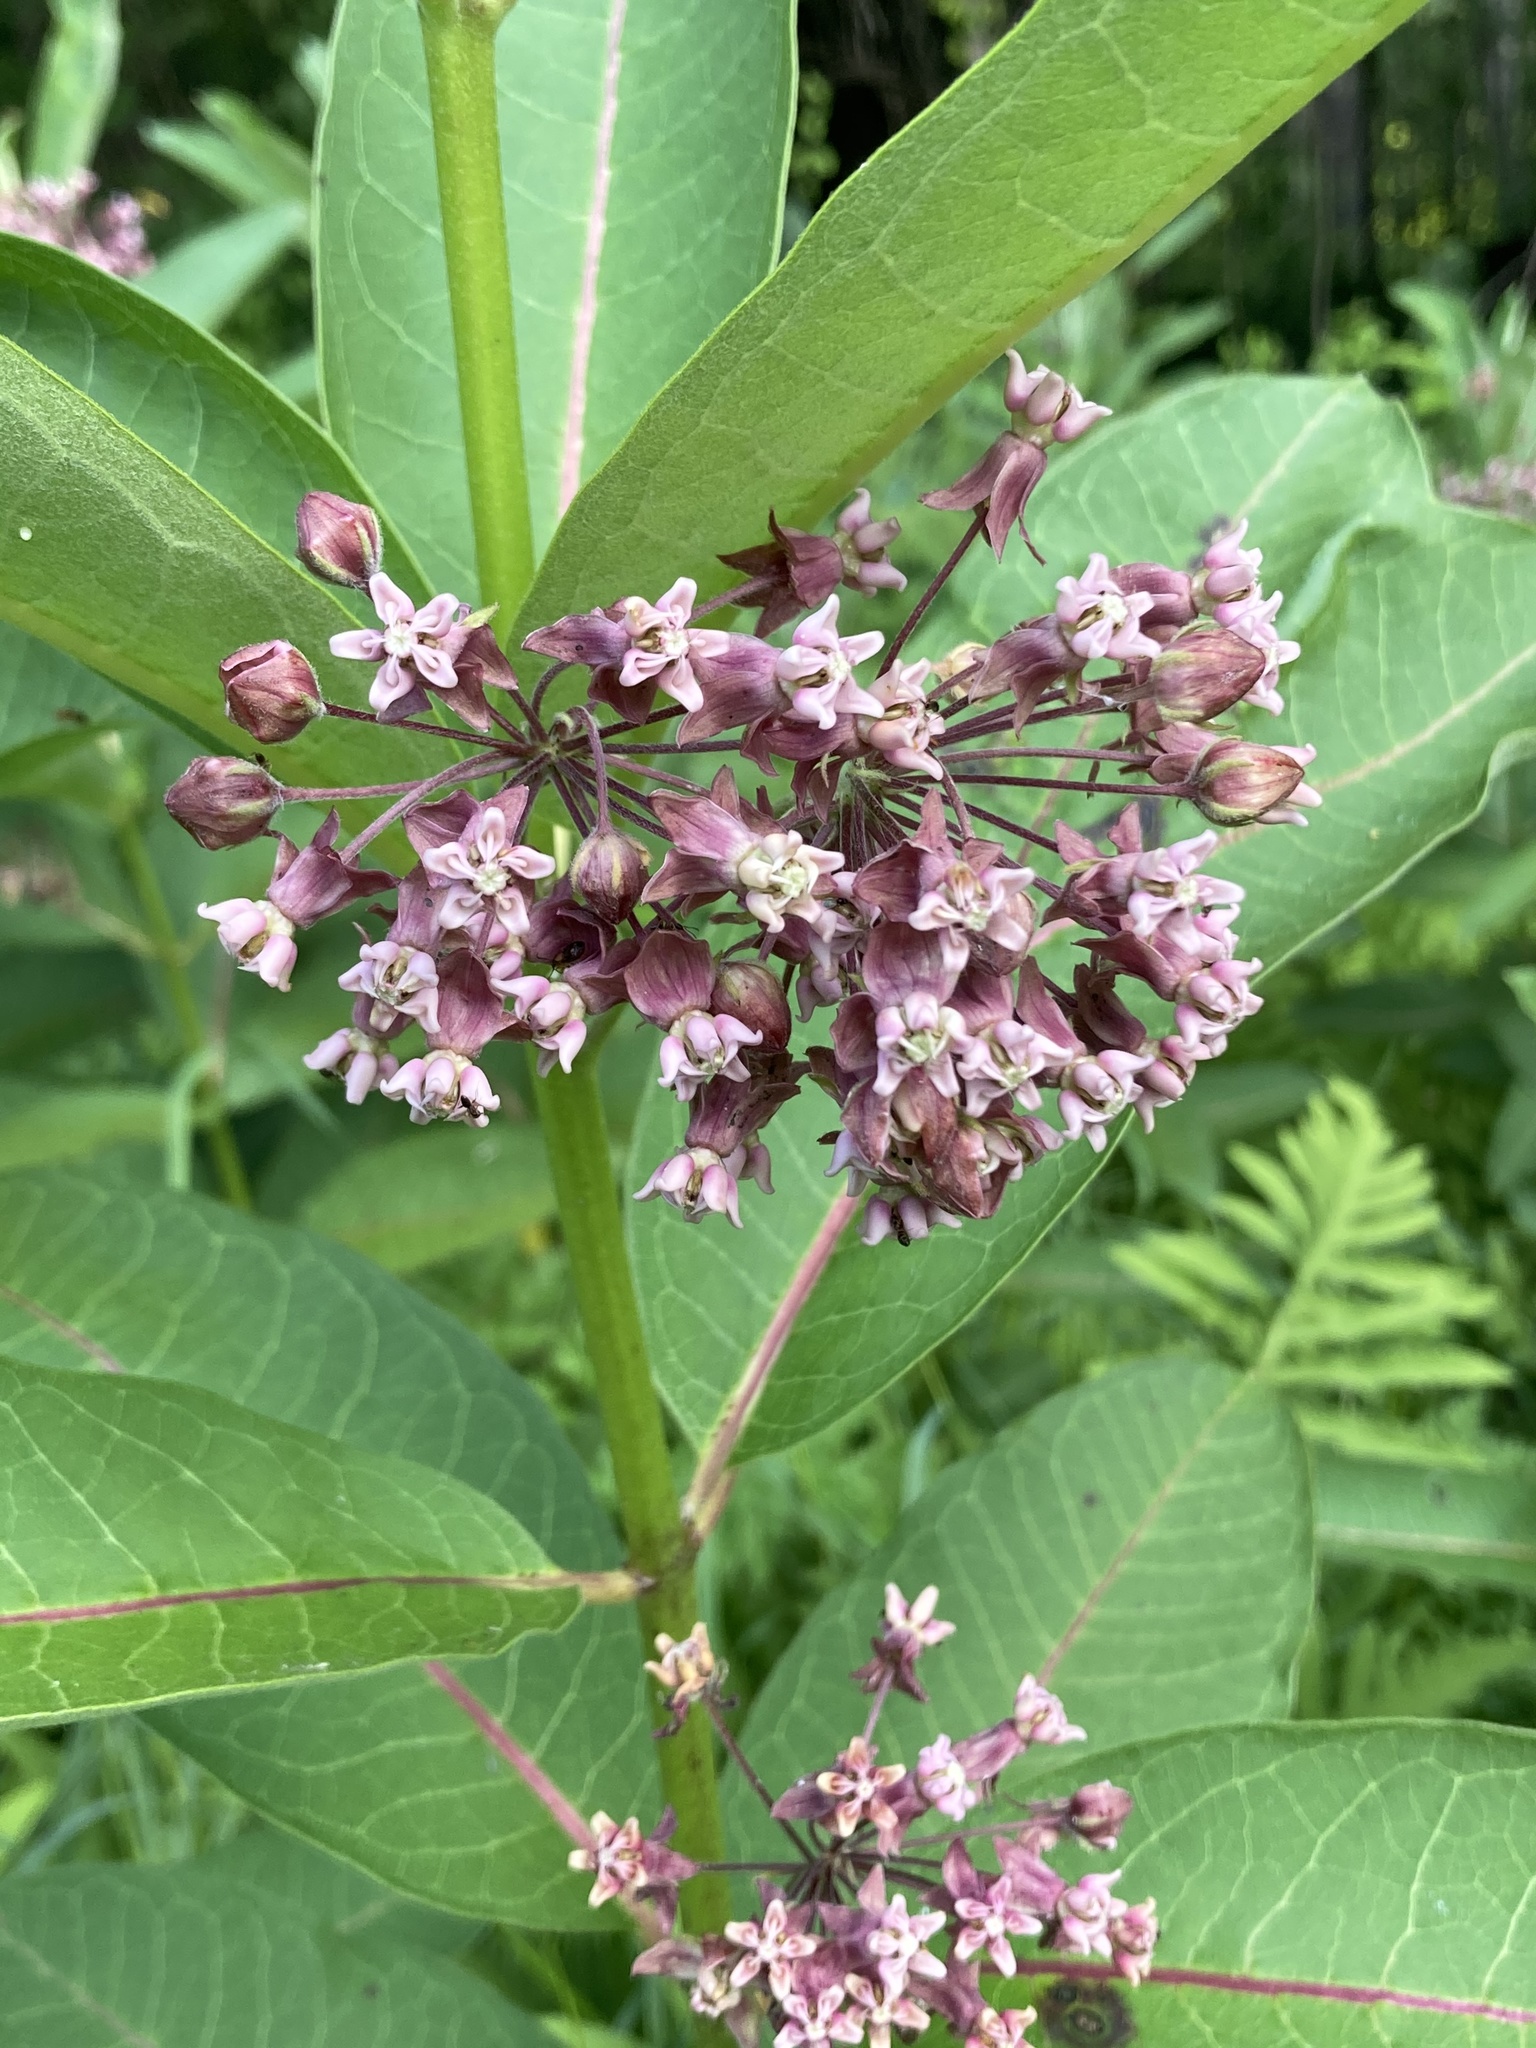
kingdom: Plantae
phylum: Tracheophyta
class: Magnoliopsida
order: Gentianales
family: Apocynaceae
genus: Asclepias
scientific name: Asclepias syriaca
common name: Common milkweed
